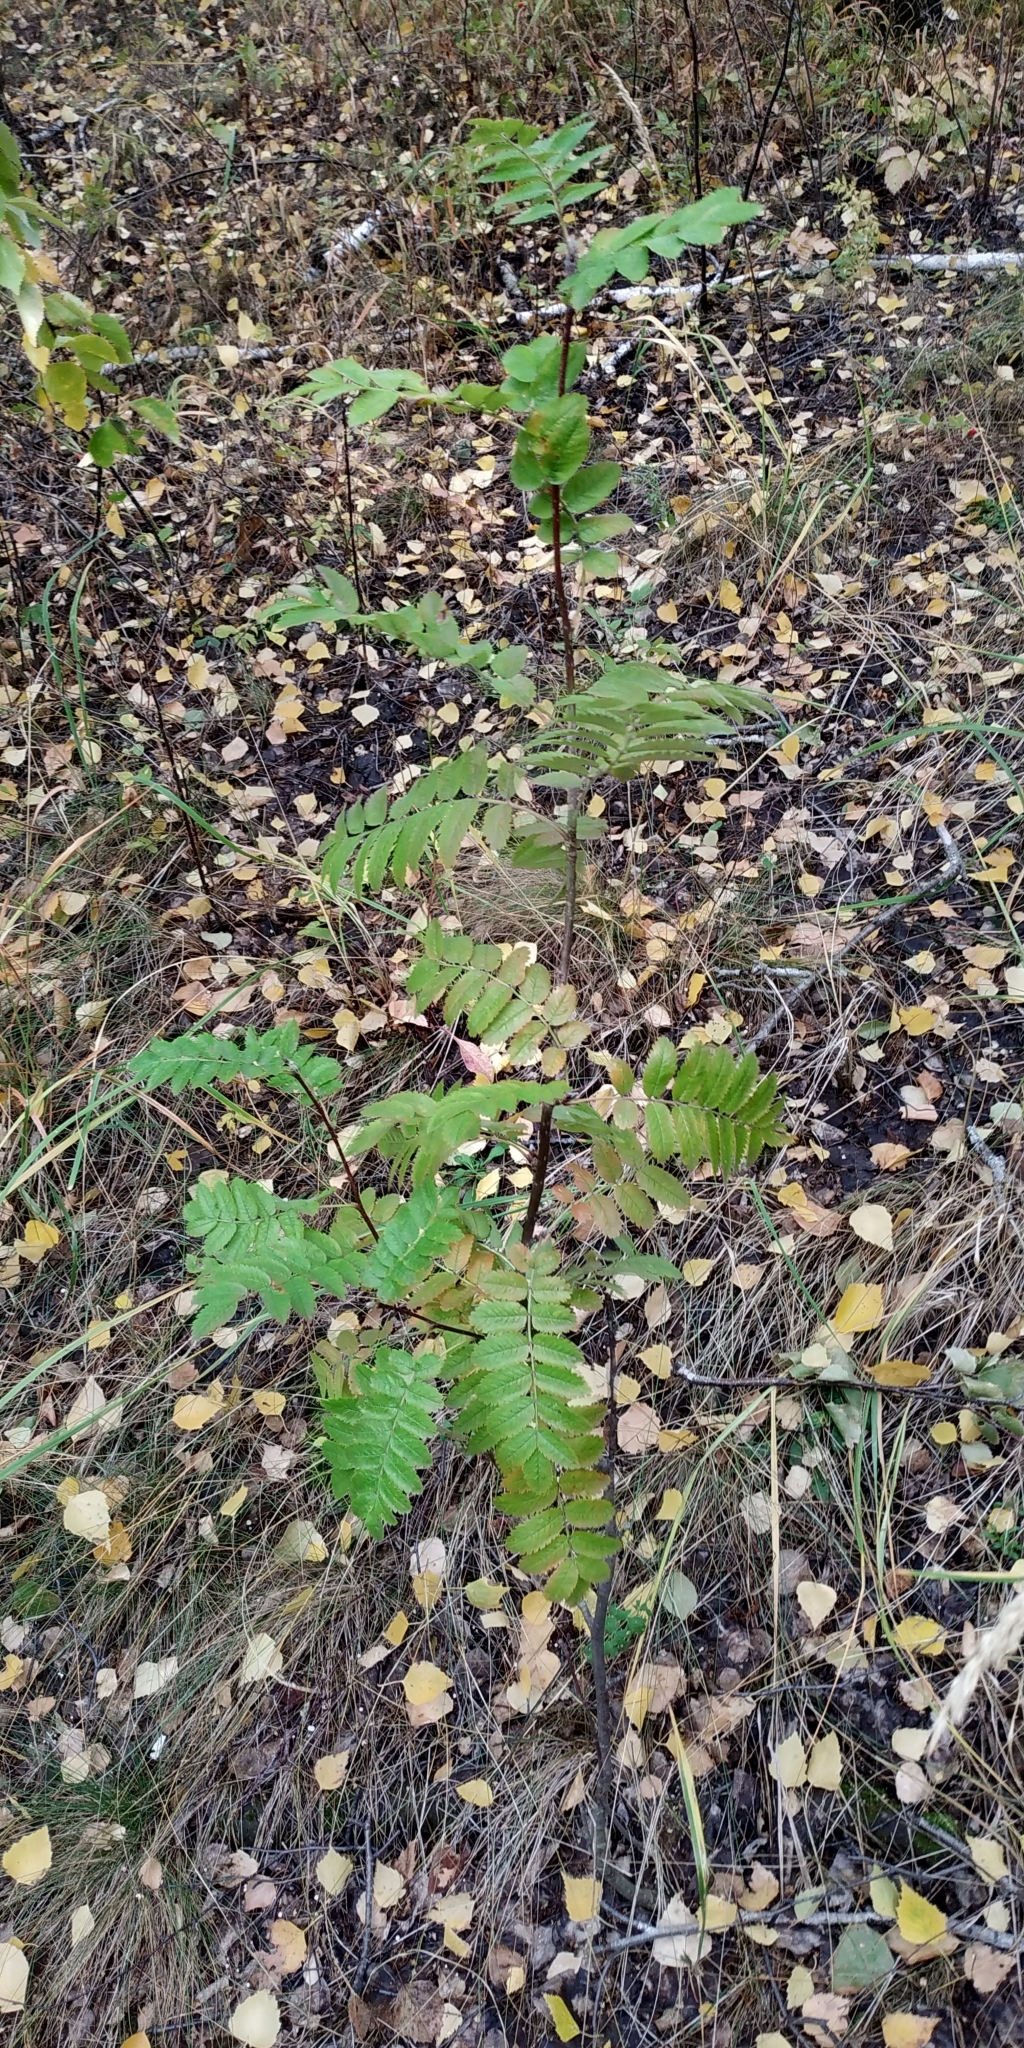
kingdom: Plantae
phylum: Tracheophyta
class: Magnoliopsida
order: Rosales
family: Rosaceae
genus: Sorbus
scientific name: Sorbus aucuparia
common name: Rowan
